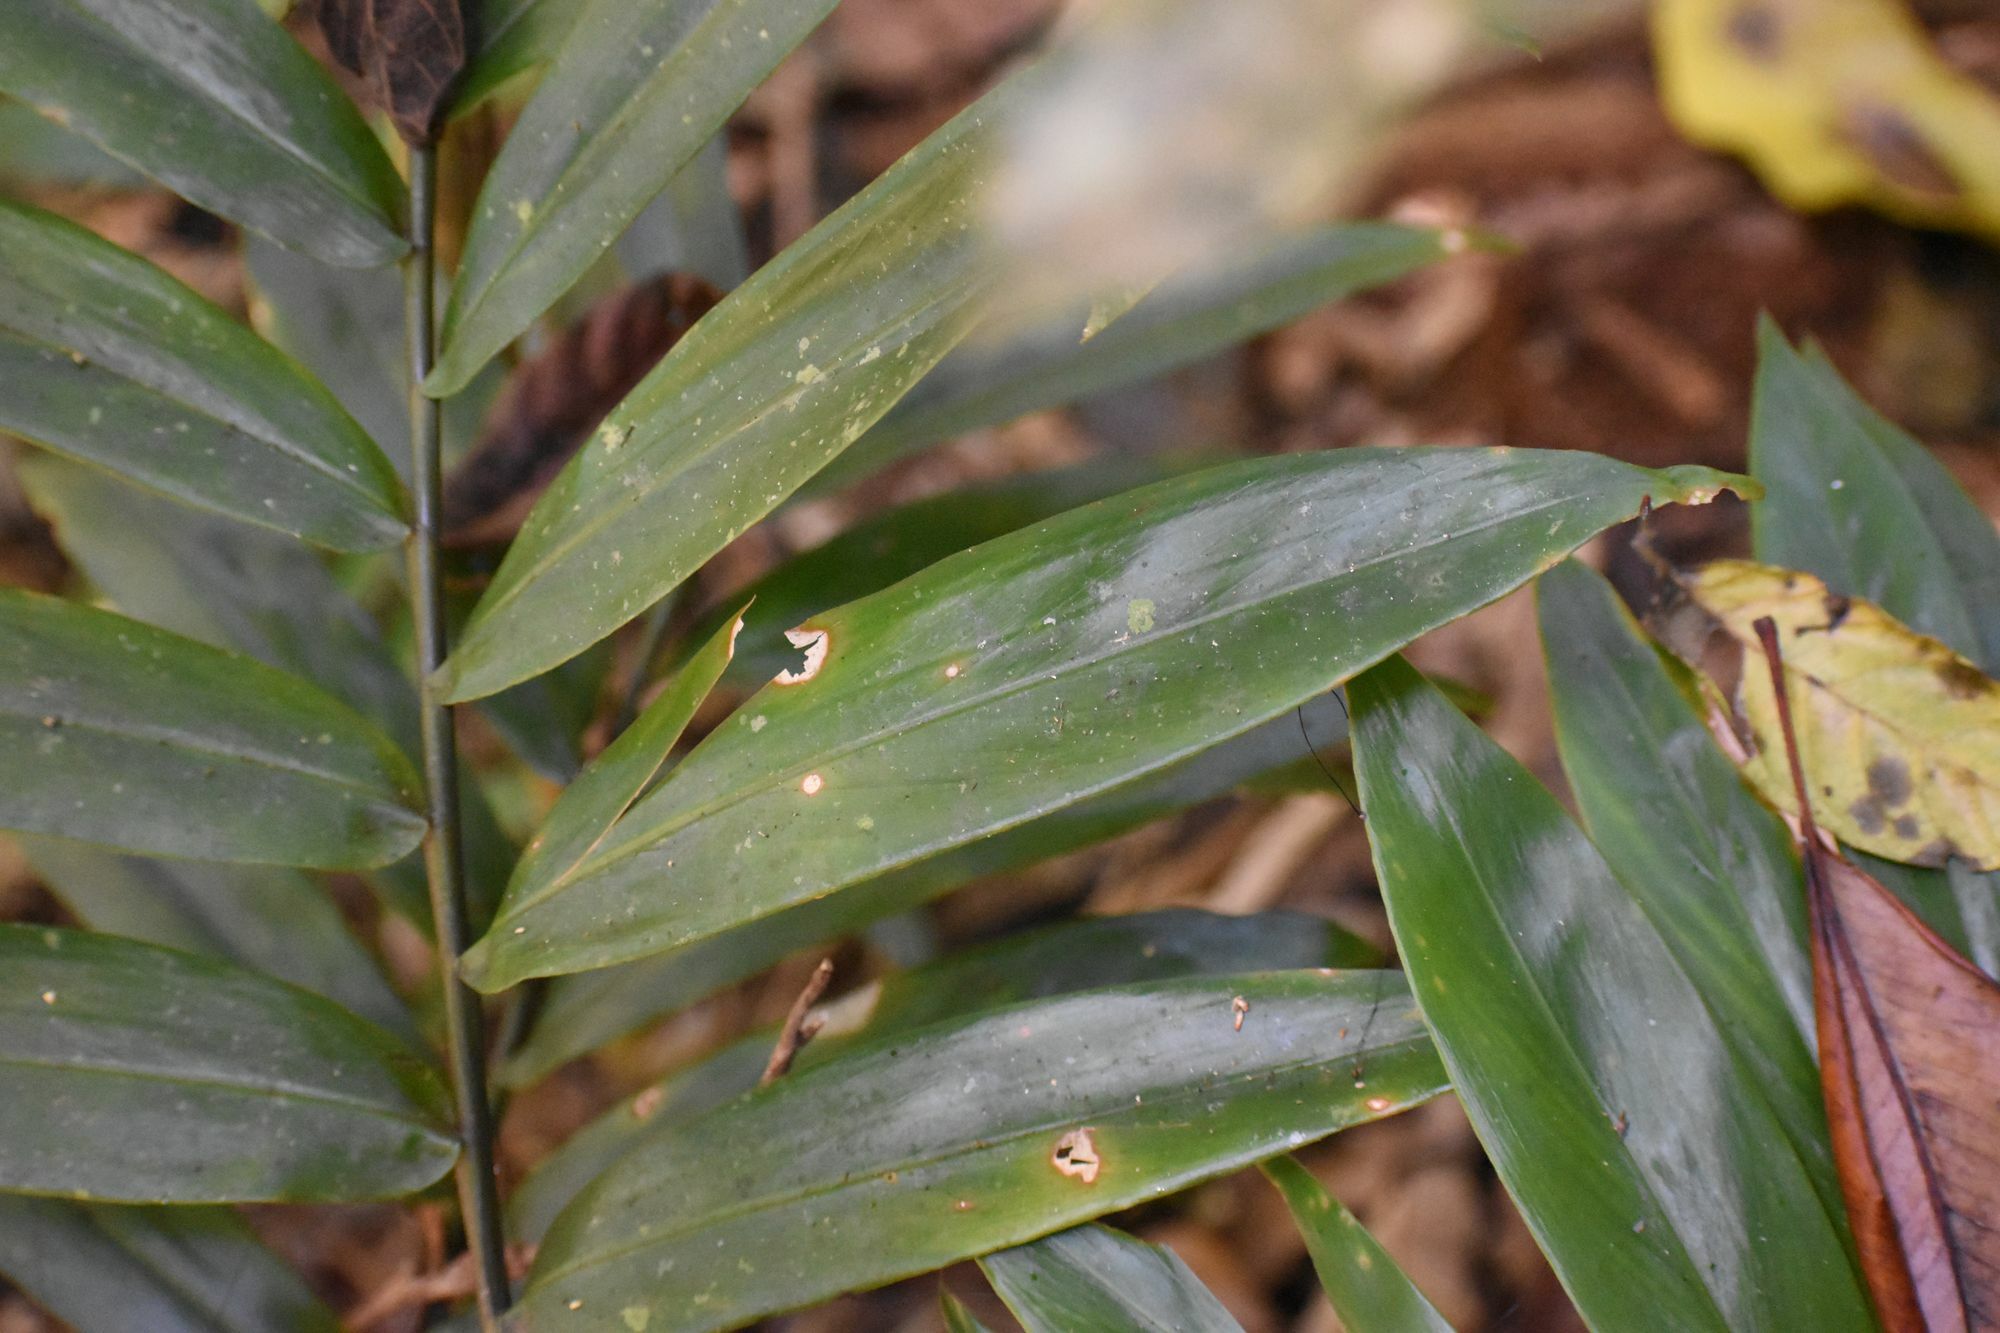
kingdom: Plantae
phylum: Tracheophyta
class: Liliopsida
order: Zingiberales
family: Zingiberaceae
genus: Alpinia
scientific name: Alpinia modesta
